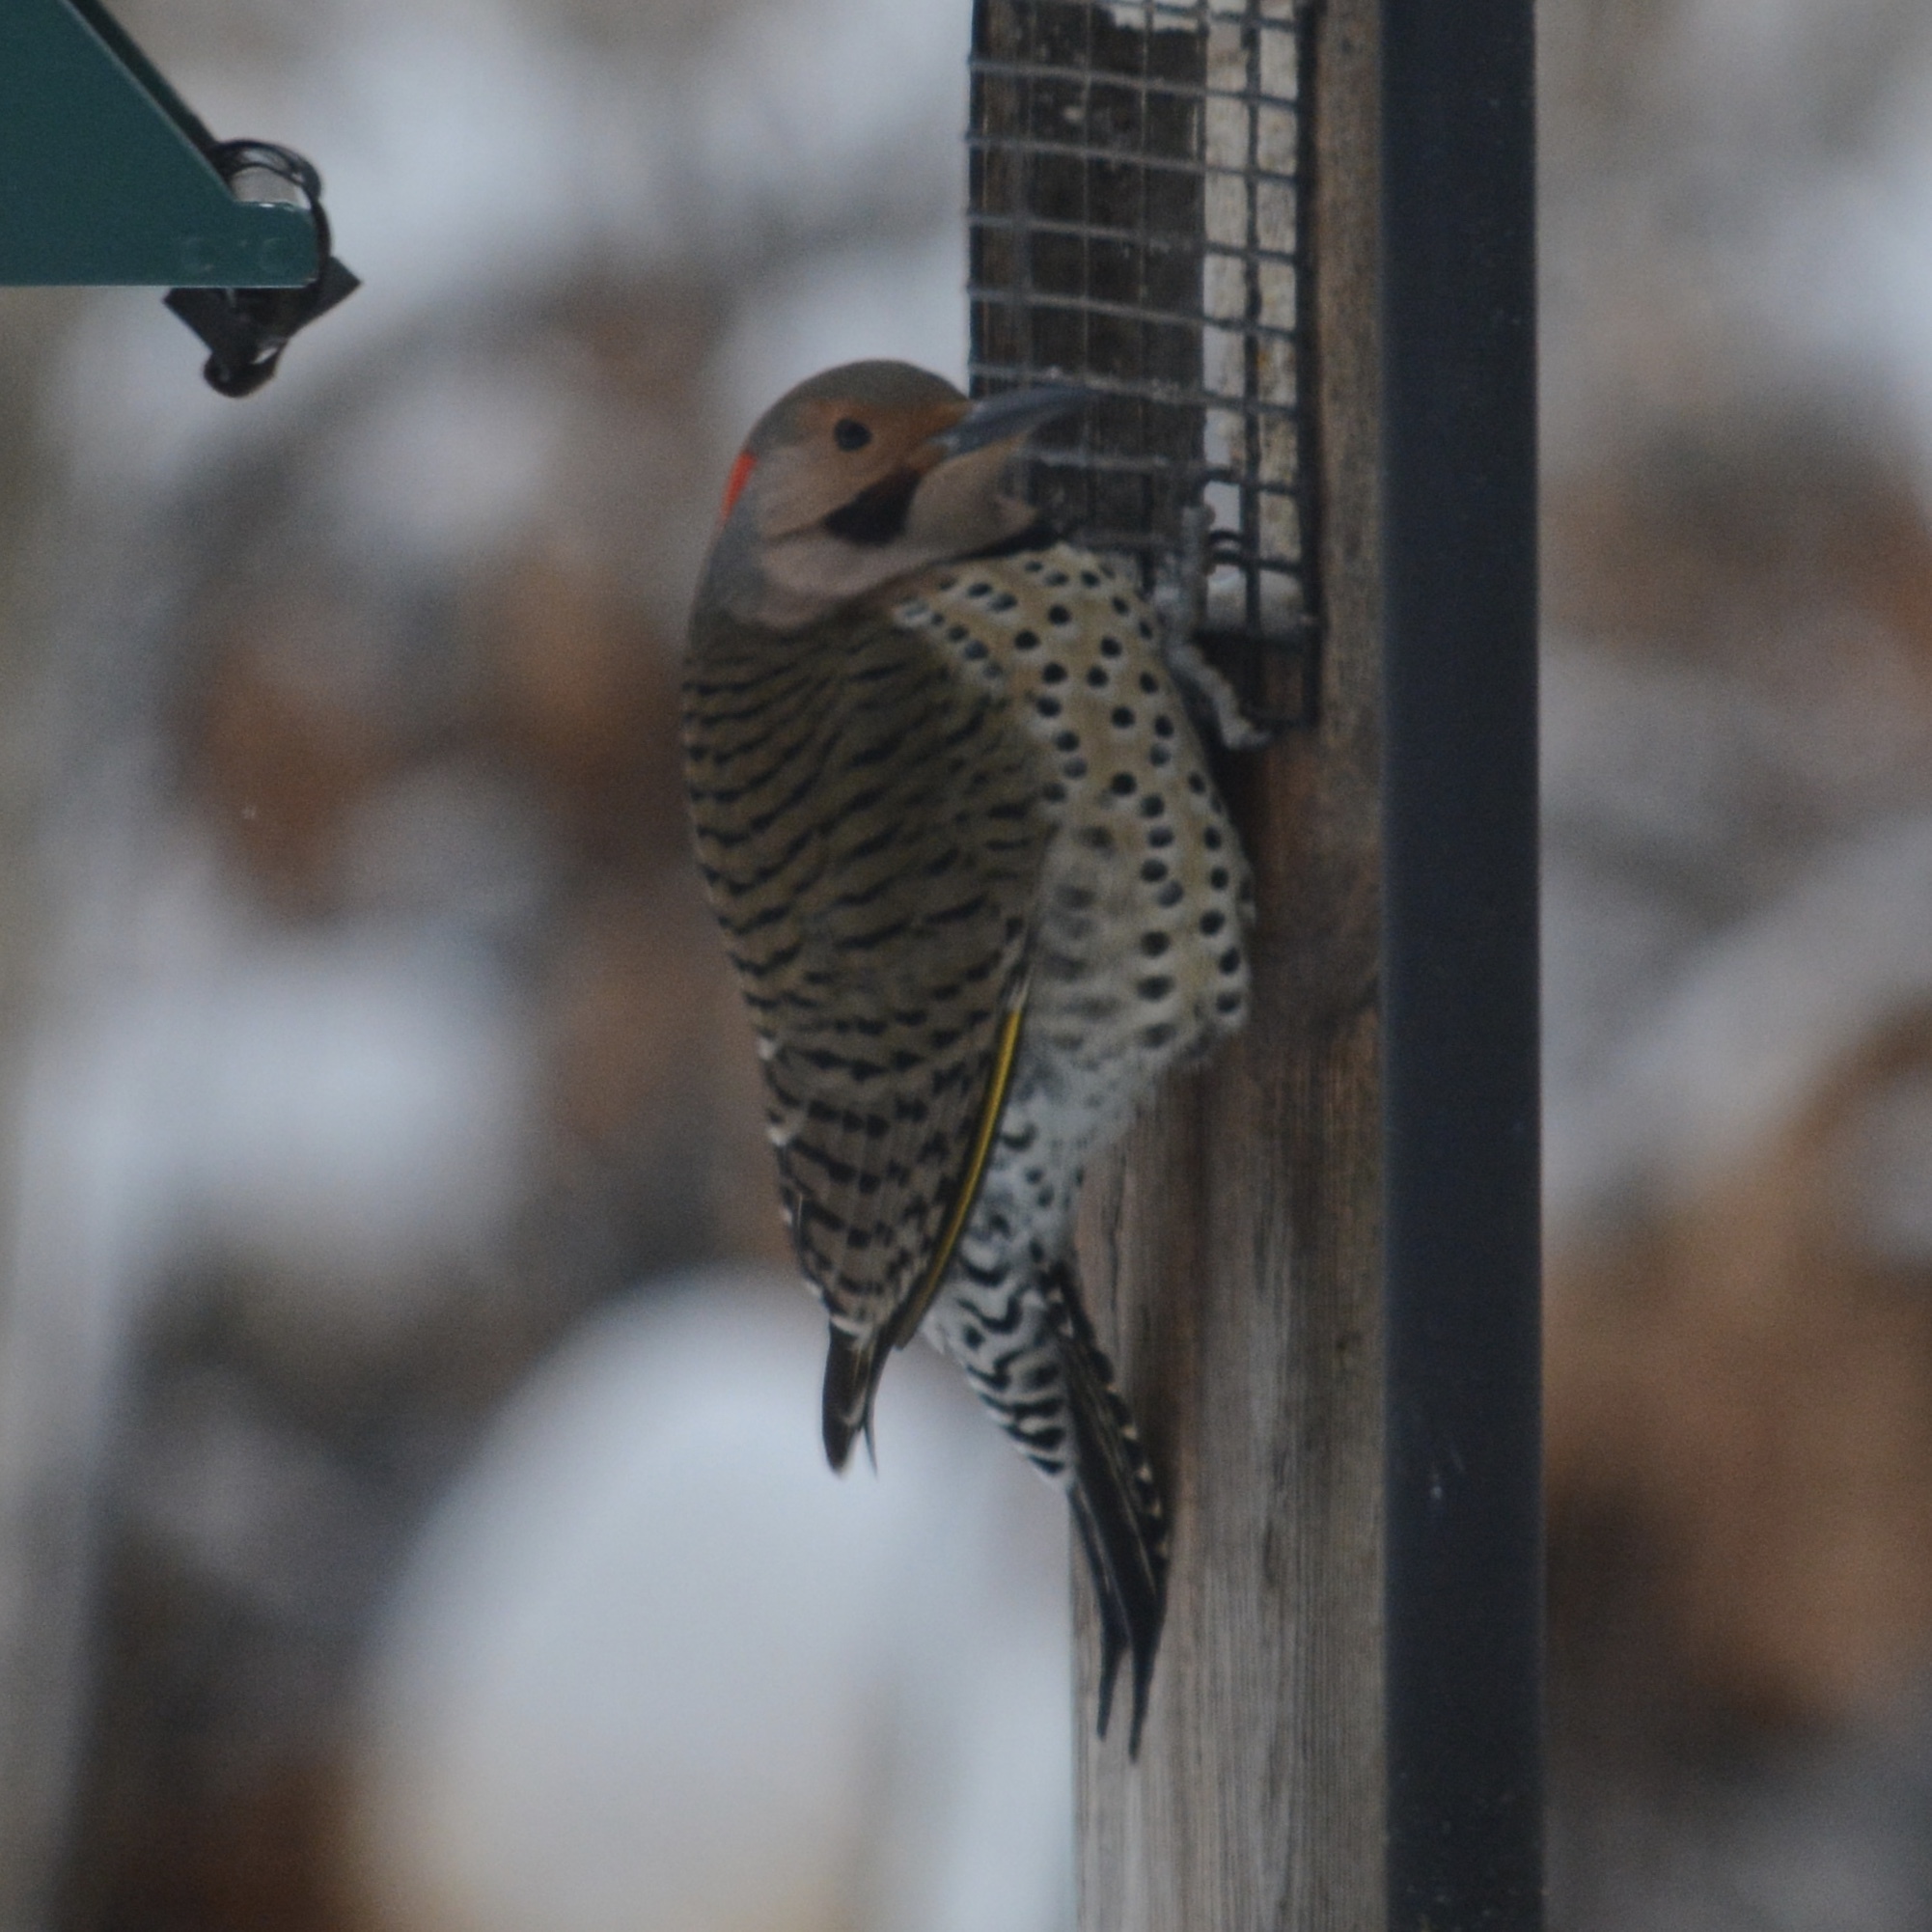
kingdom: Animalia
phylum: Chordata
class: Aves
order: Piciformes
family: Picidae
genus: Colaptes
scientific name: Colaptes auratus
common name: Northern flicker
